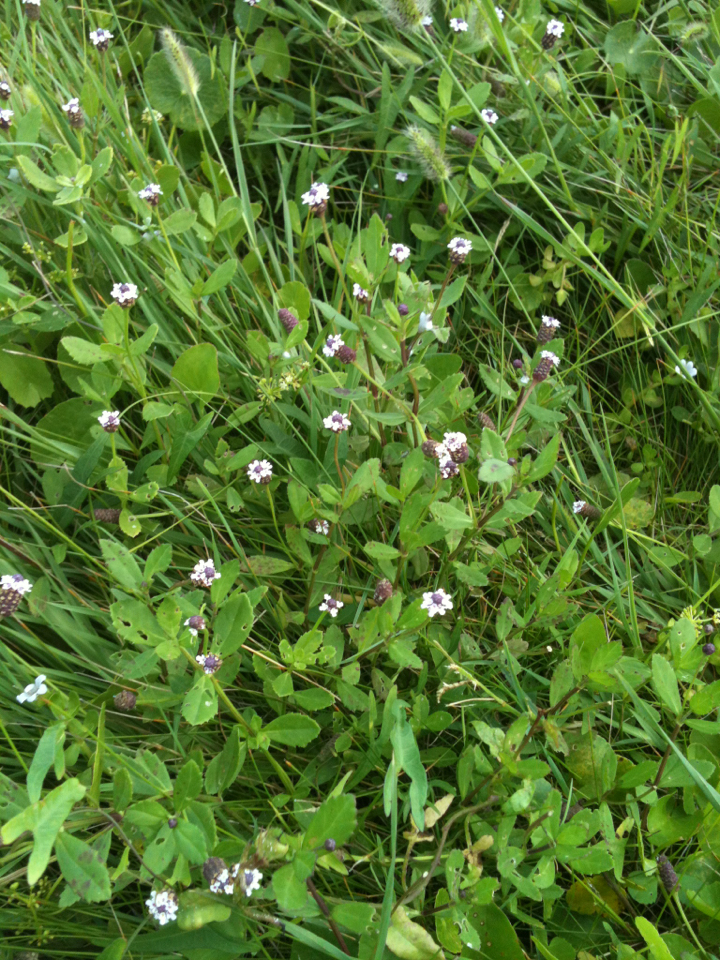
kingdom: Plantae
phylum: Tracheophyta
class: Magnoliopsida
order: Lamiales
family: Verbenaceae
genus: Phyla
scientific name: Phyla nodiflora
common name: Frogfruit
